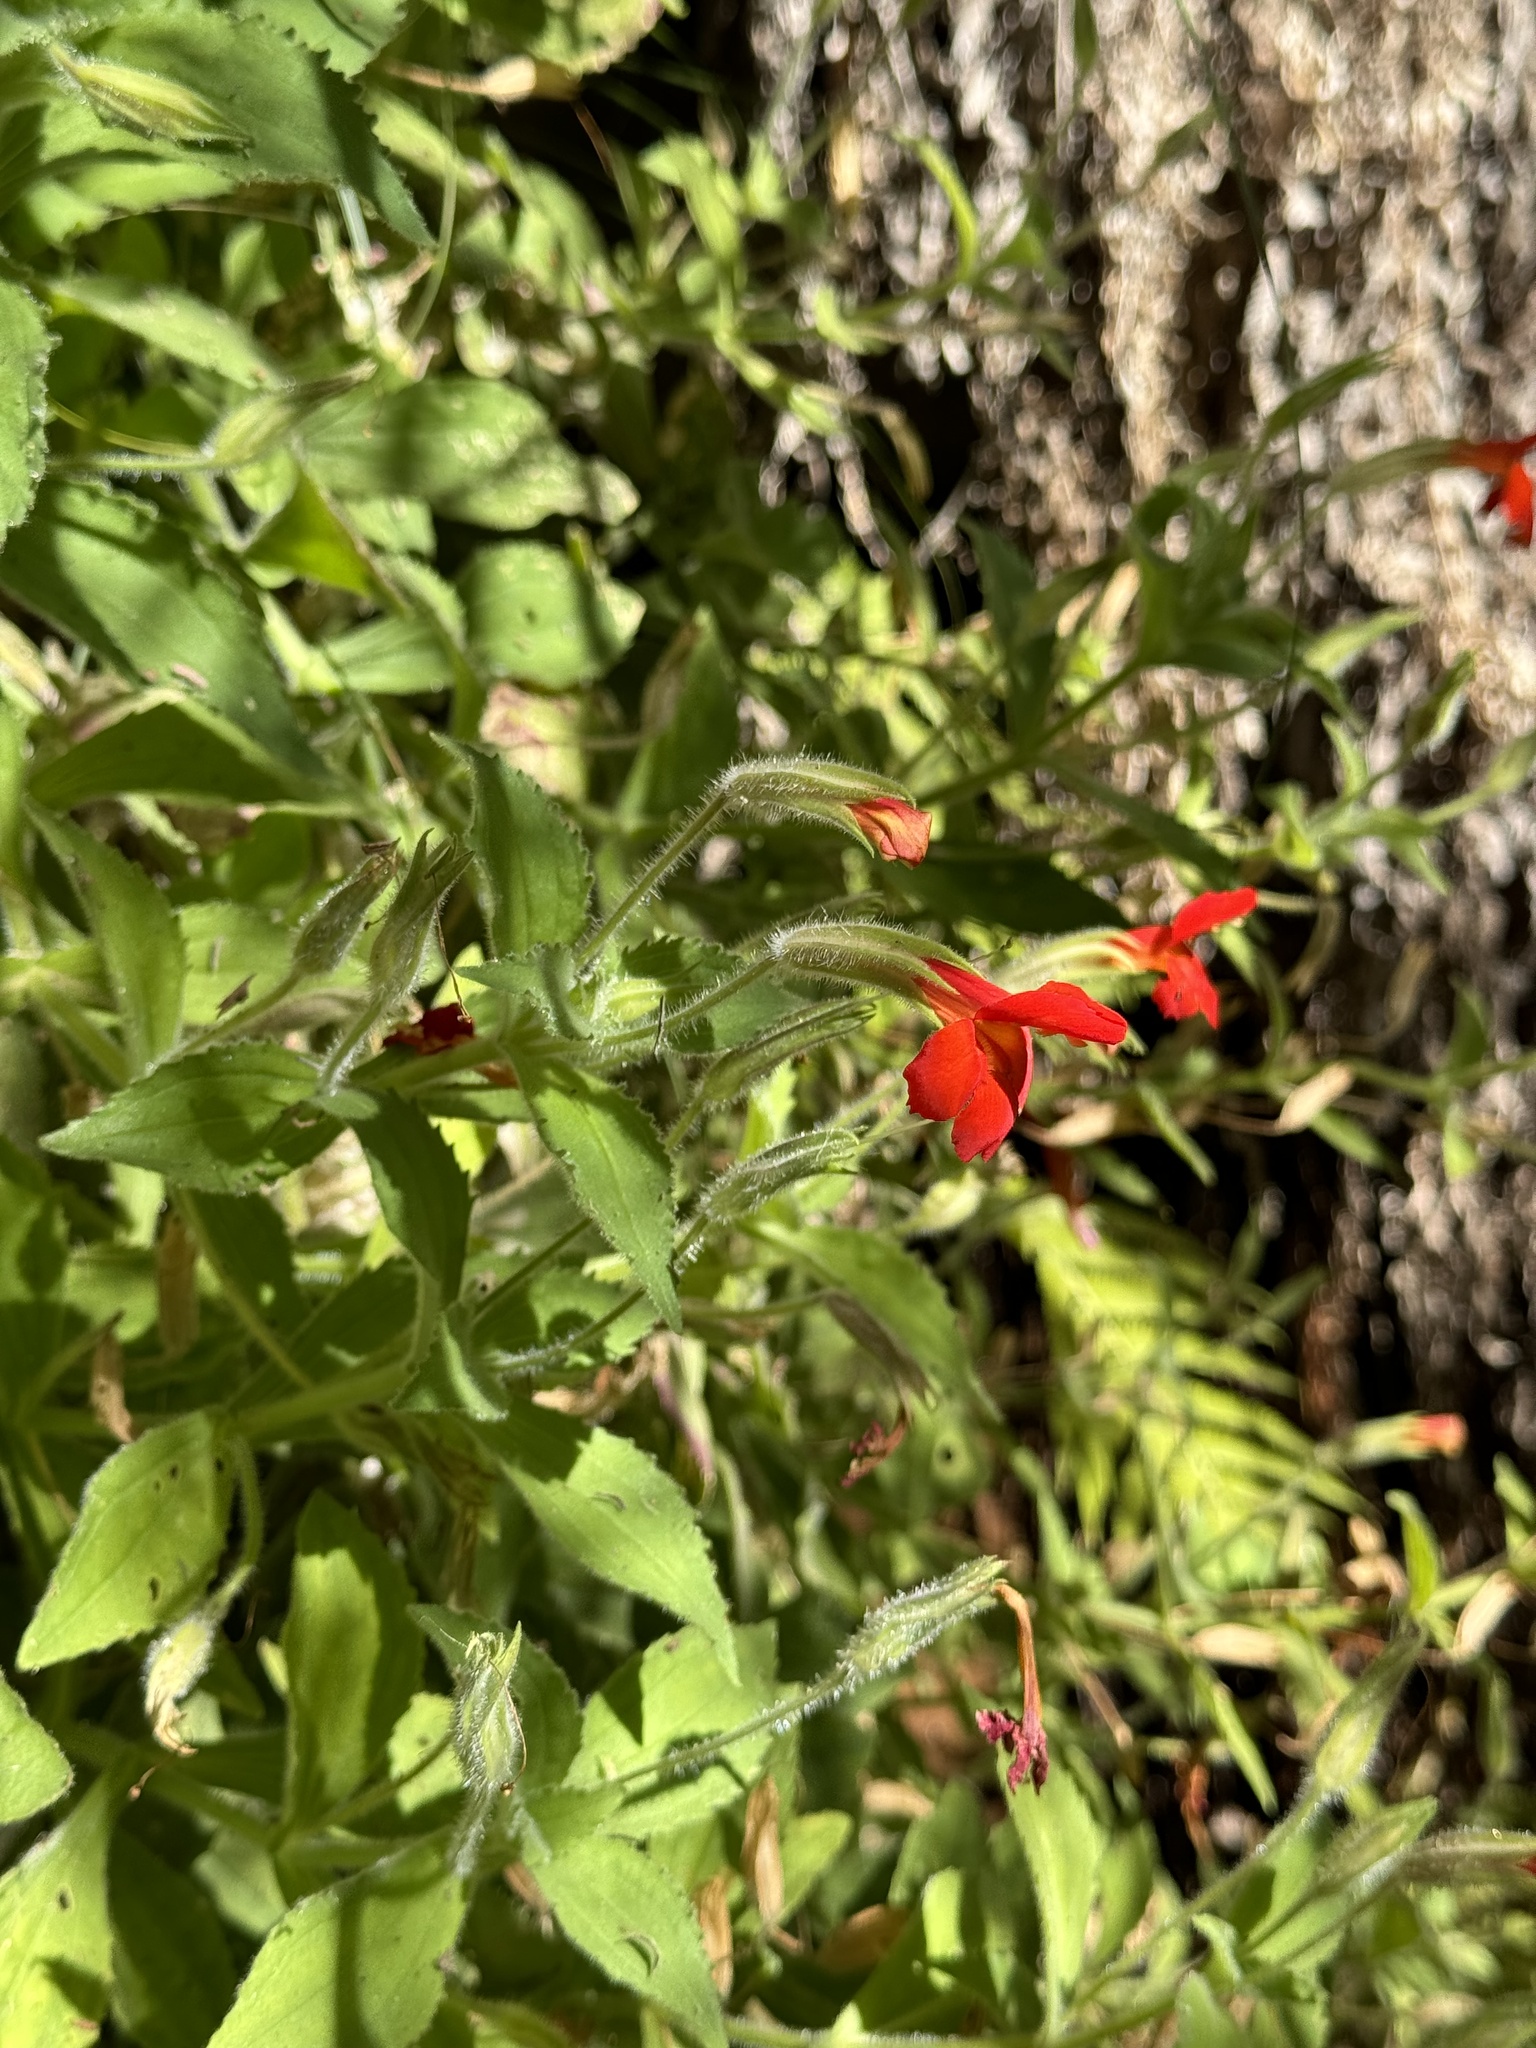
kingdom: Plantae
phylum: Tracheophyta
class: Magnoliopsida
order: Lamiales
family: Phrymaceae
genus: Erythranthe
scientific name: Erythranthe verbenacea
